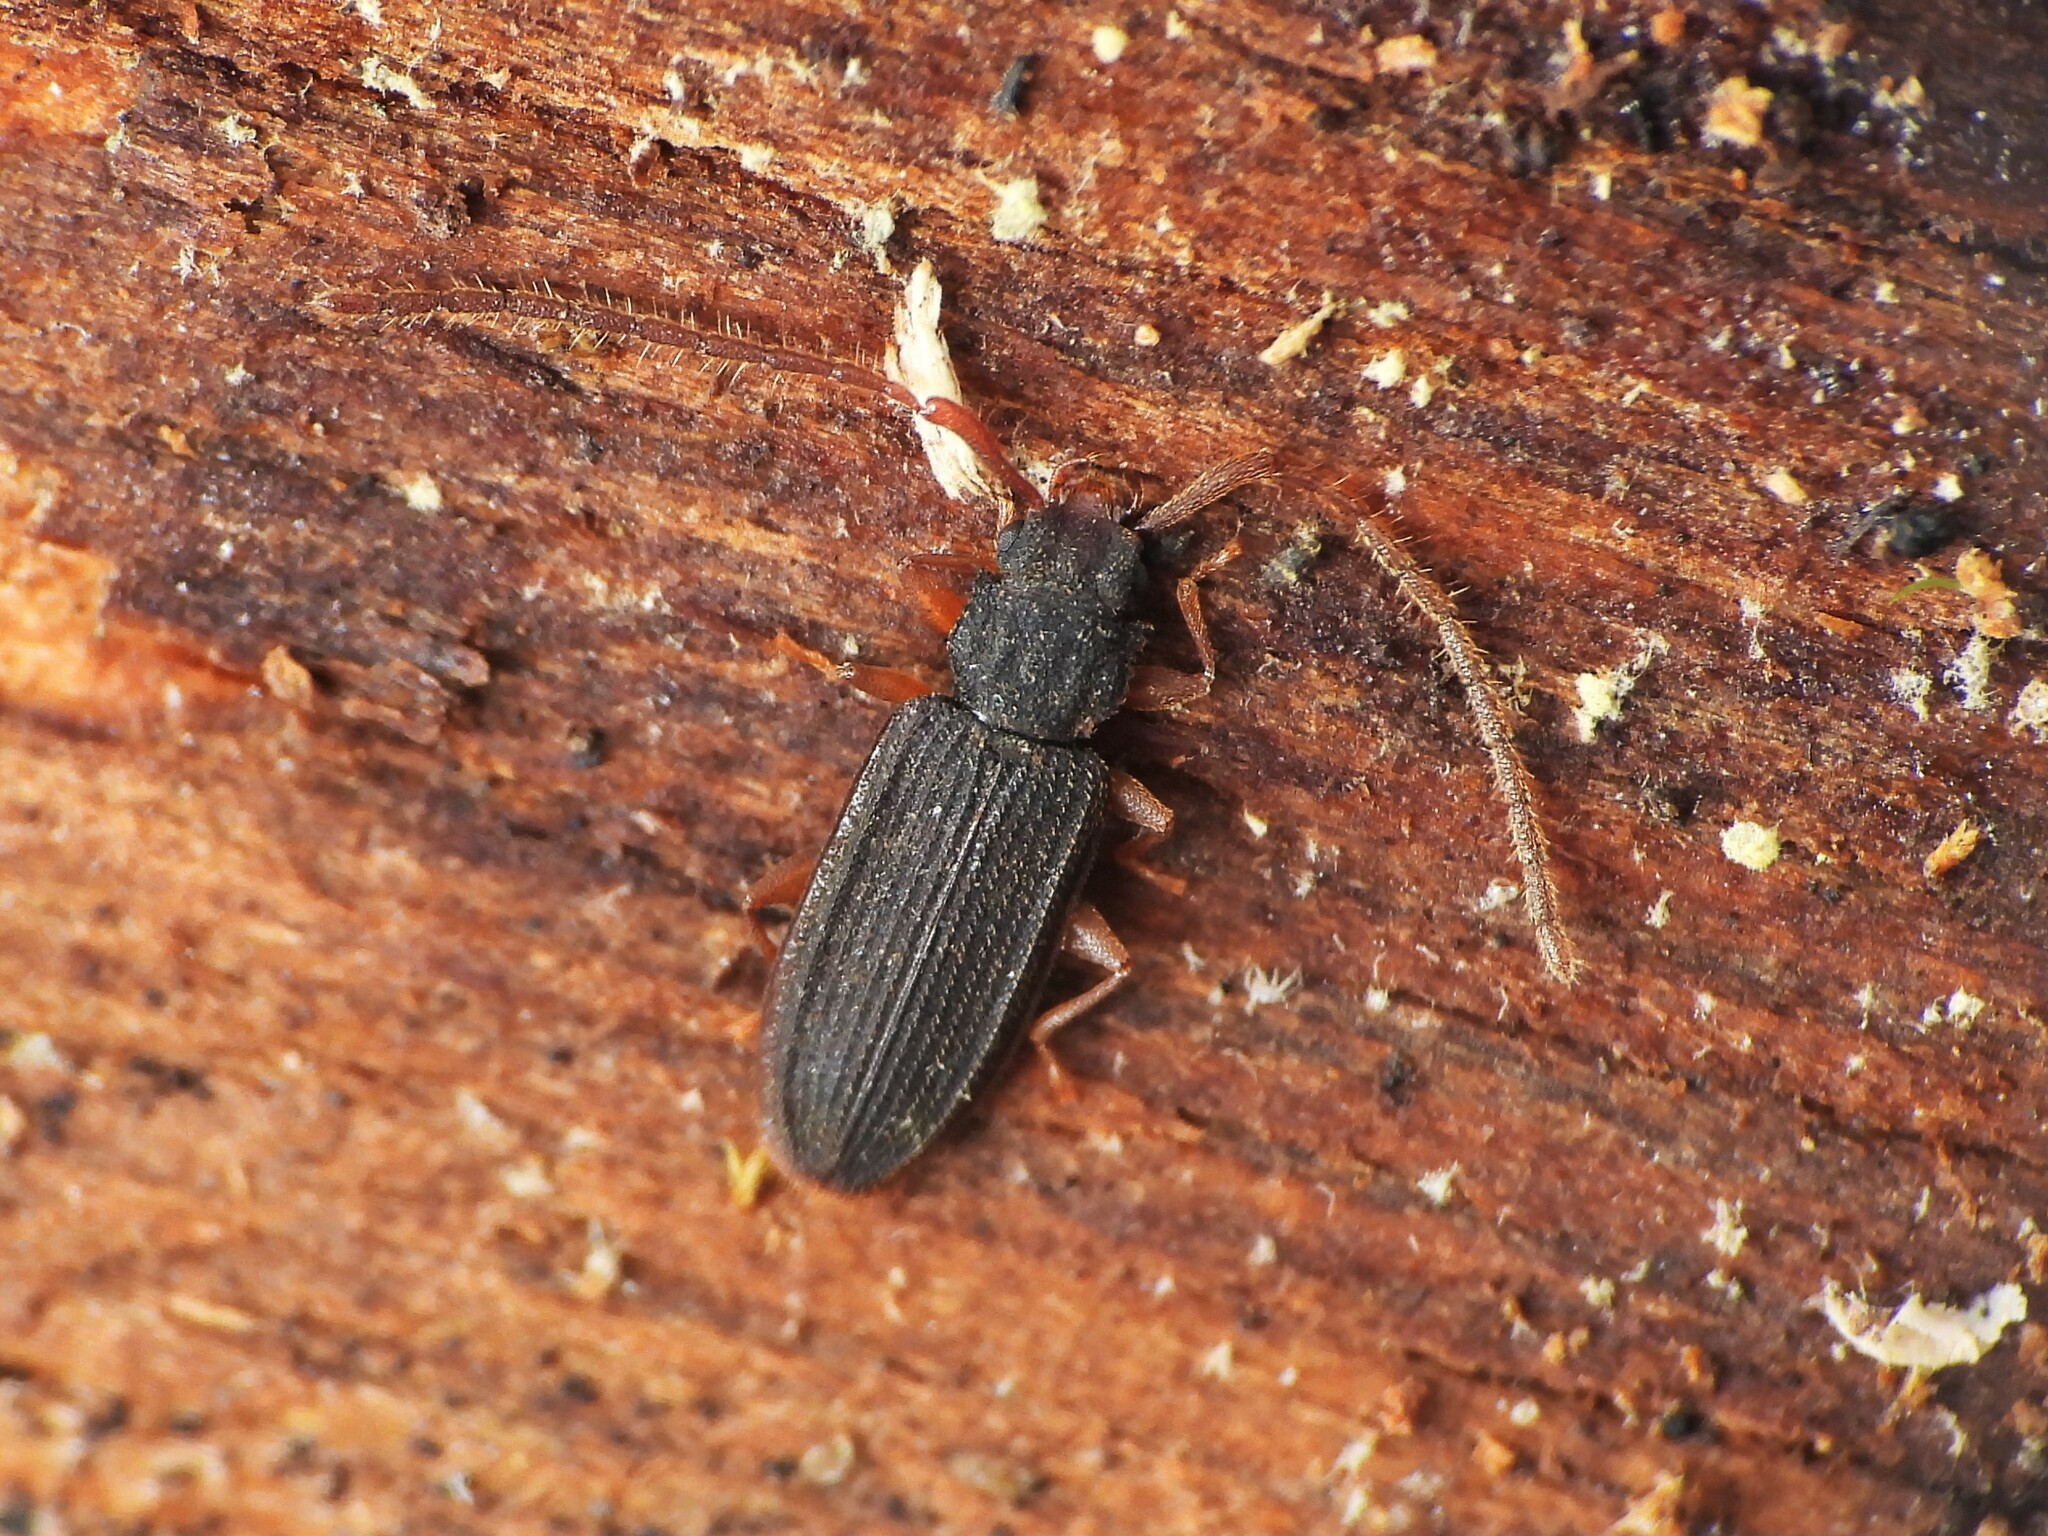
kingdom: Animalia
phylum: Arthropoda
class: Insecta
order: Coleoptera
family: Silvanidae
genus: Uleiota
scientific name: Uleiota planatus
